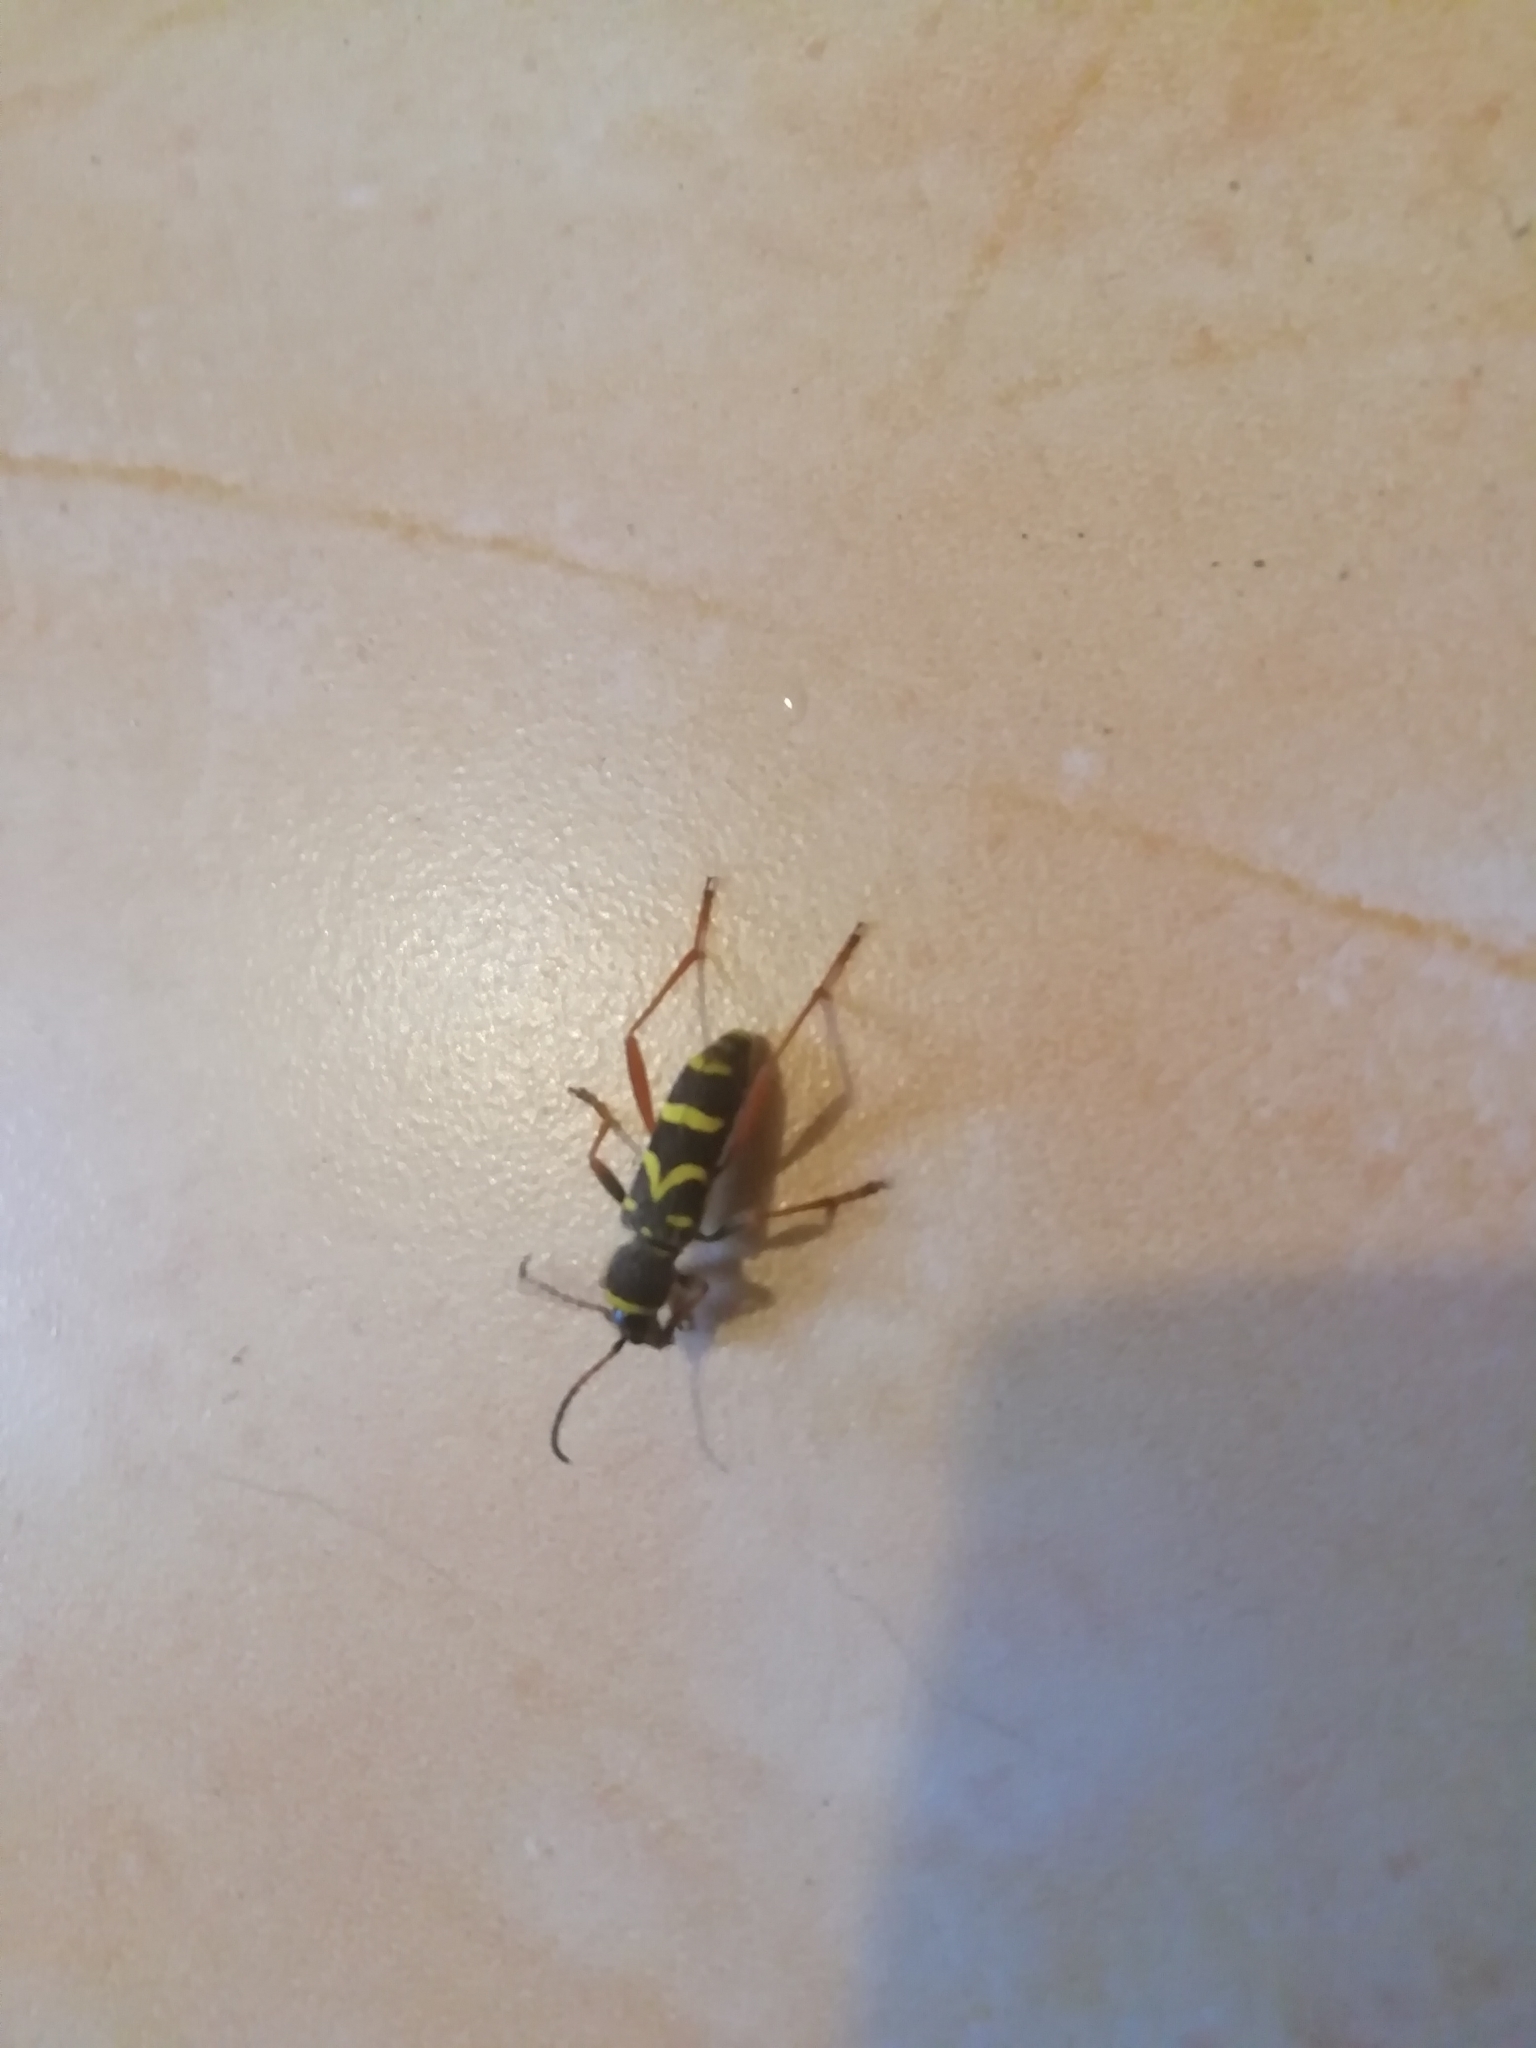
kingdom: Animalia
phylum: Arthropoda
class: Insecta
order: Coleoptera
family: Cerambycidae
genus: Clytus
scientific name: Clytus arietis
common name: Wasp beetle
